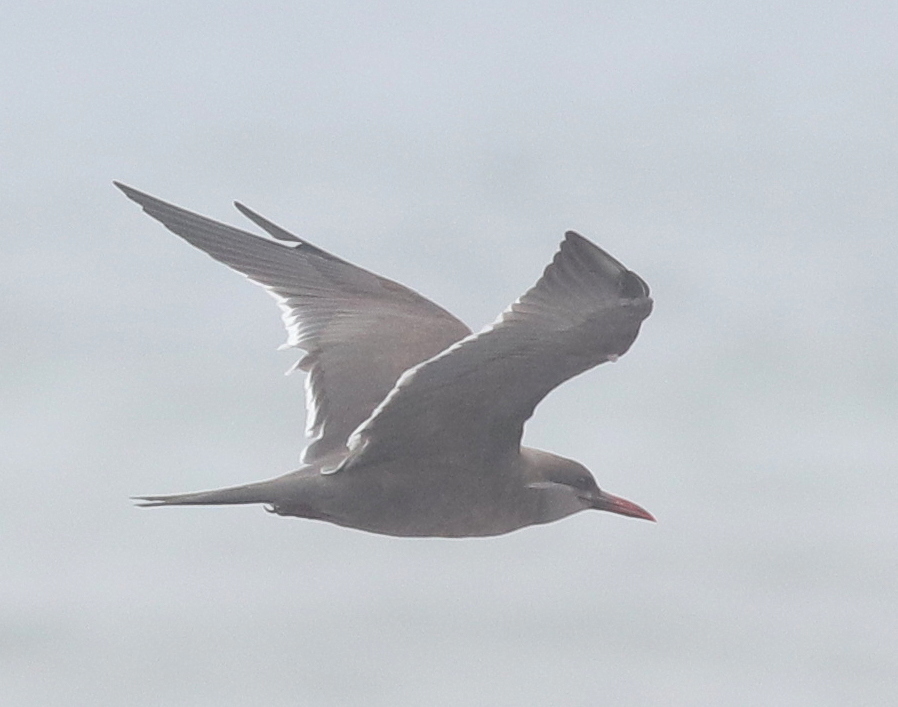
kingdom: Animalia
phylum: Chordata
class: Aves
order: Charadriiformes
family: Laridae
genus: Larosterna
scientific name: Larosterna inca
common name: Inca tern
